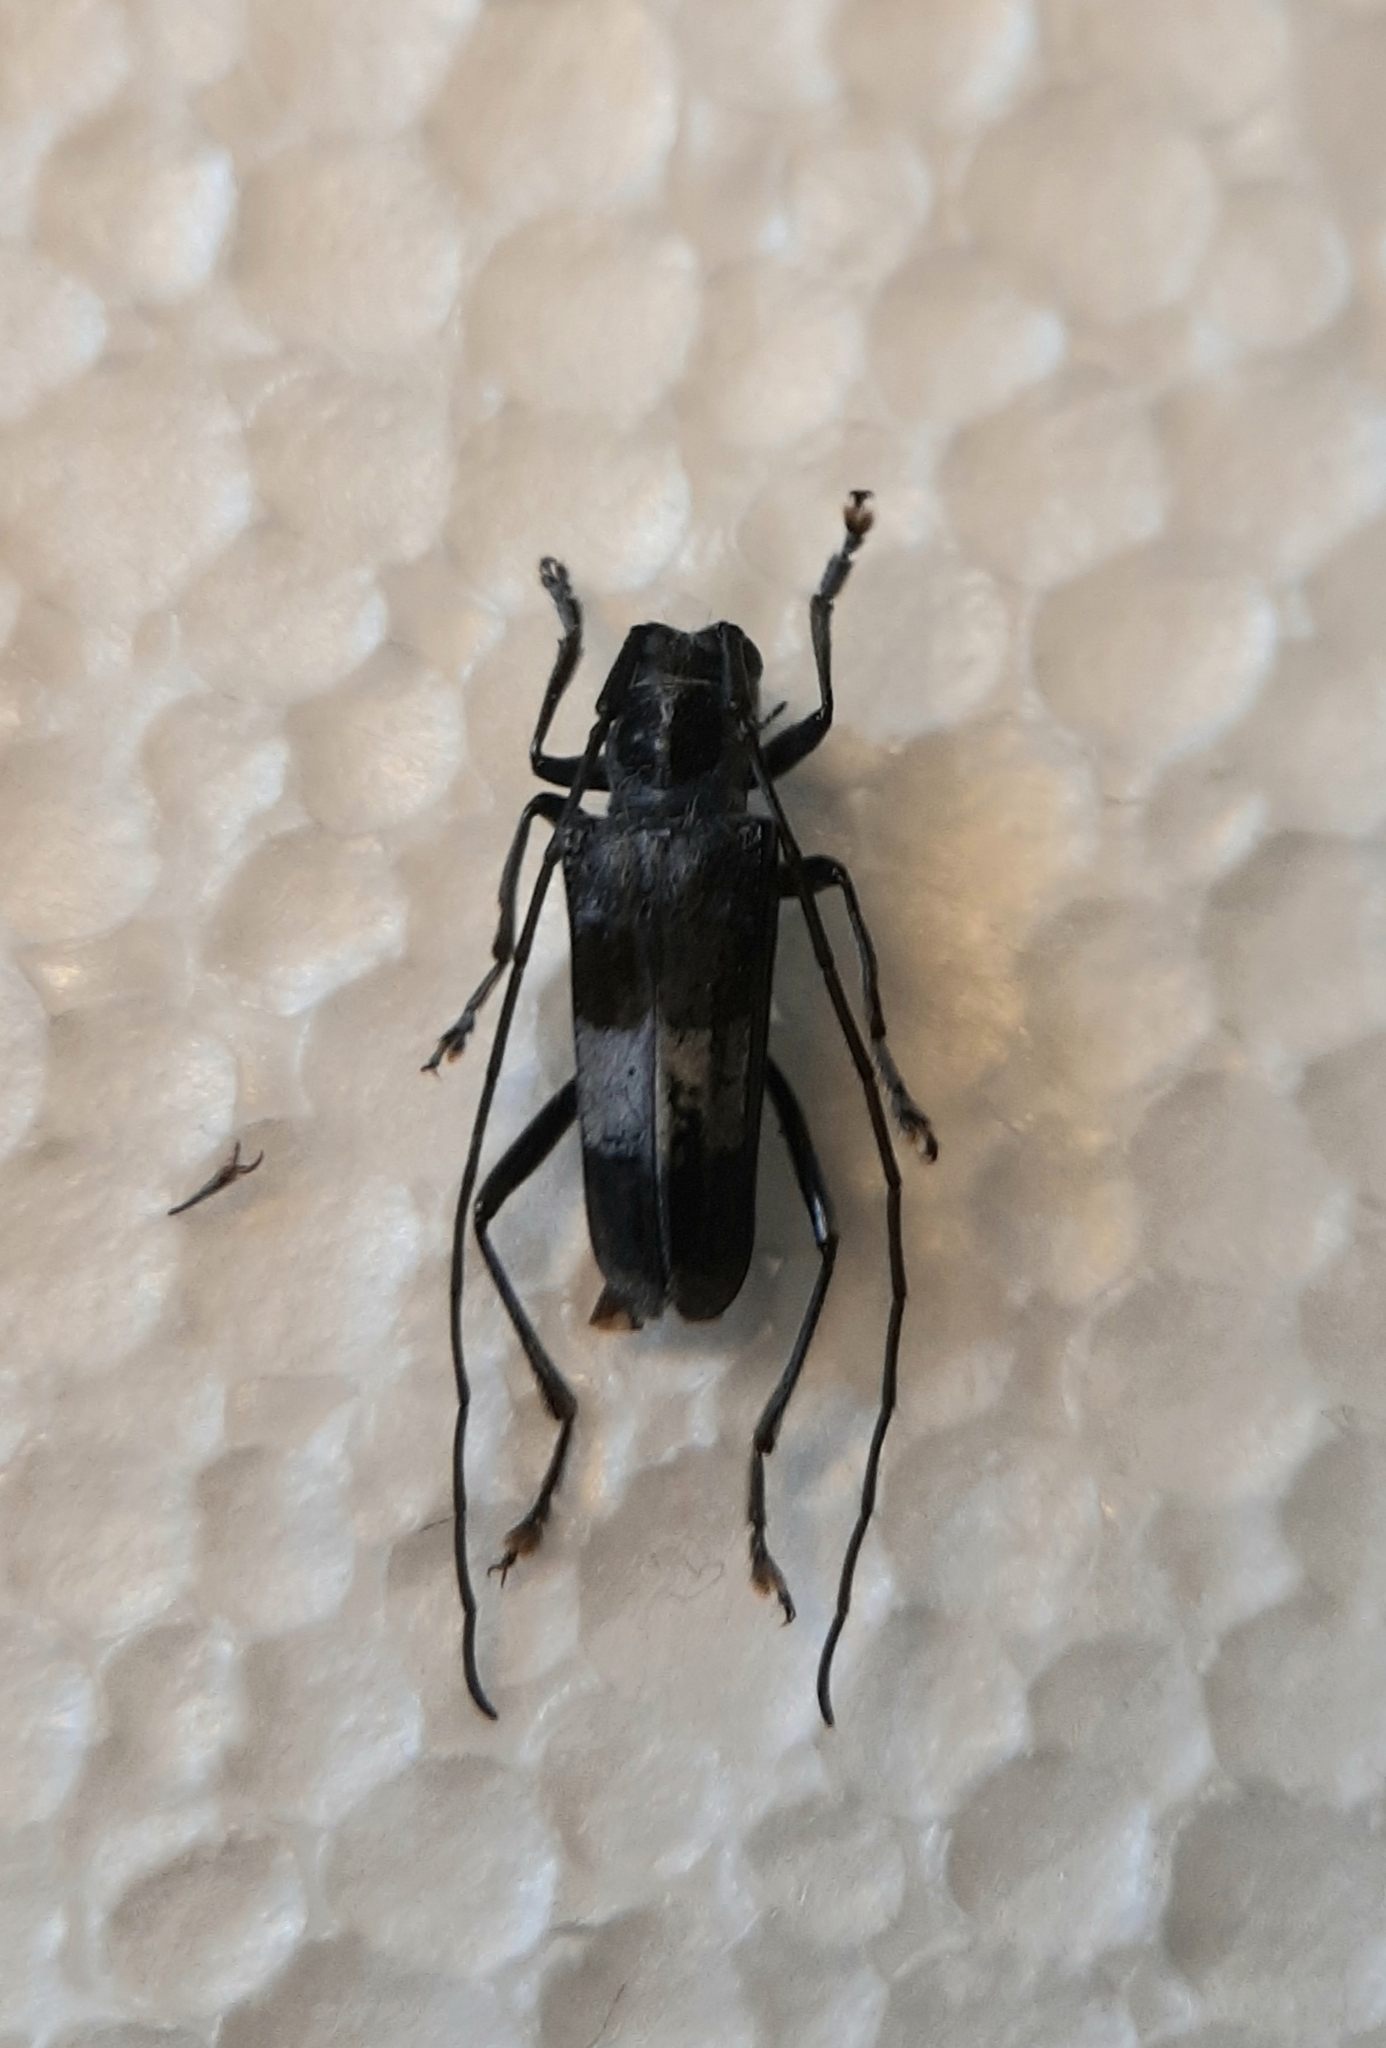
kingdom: Animalia
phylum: Arthropoda
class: Insecta
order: Coleoptera
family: Cerambycidae
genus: Paraglenea
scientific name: Paraglenea transversefasciata
